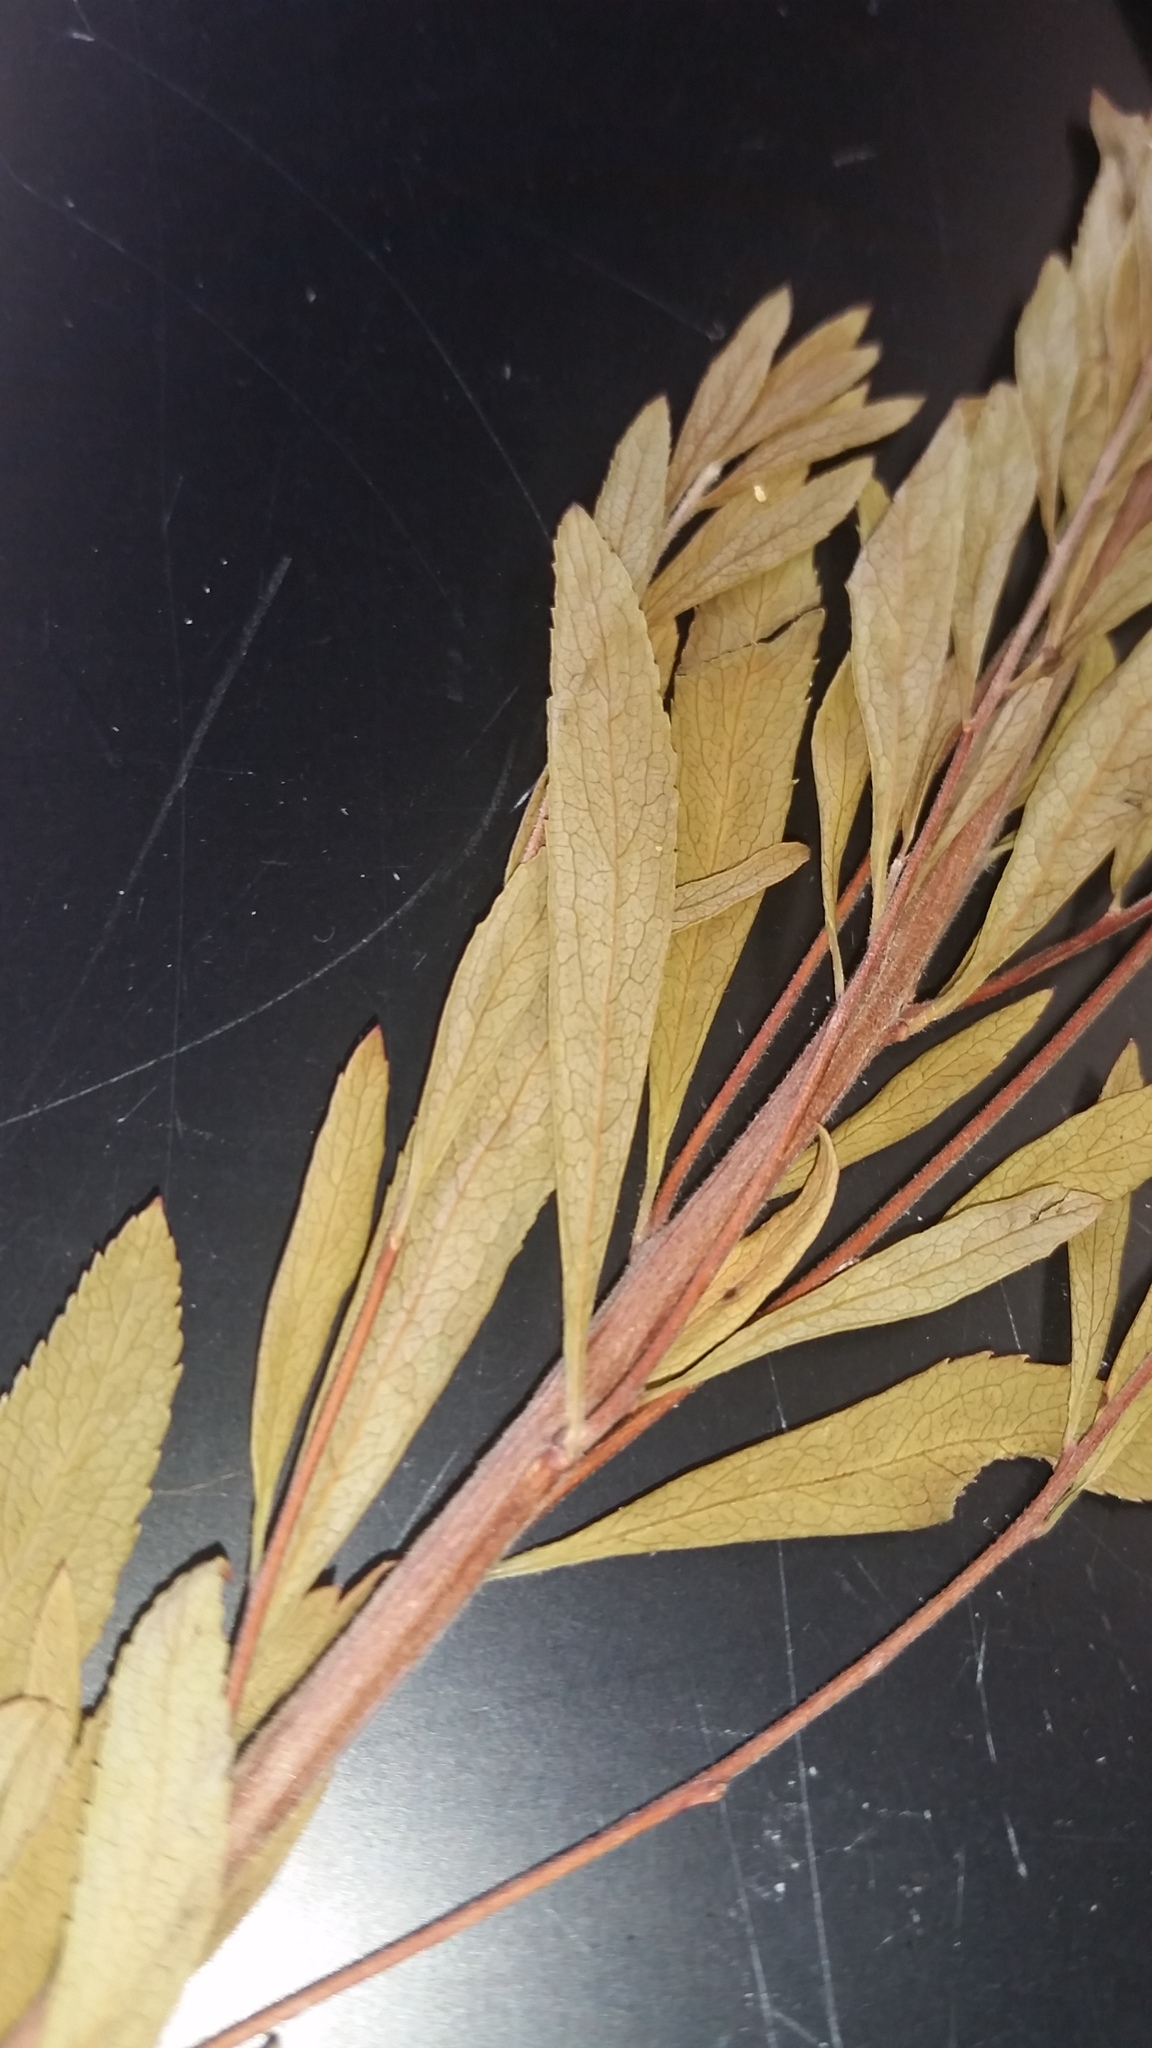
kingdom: Plantae
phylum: Tracheophyta
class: Magnoliopsida
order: Rosales
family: Rosaceae
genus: Spiraea
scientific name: Spiraea thunbergii
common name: Thunberg's meadowsweet
